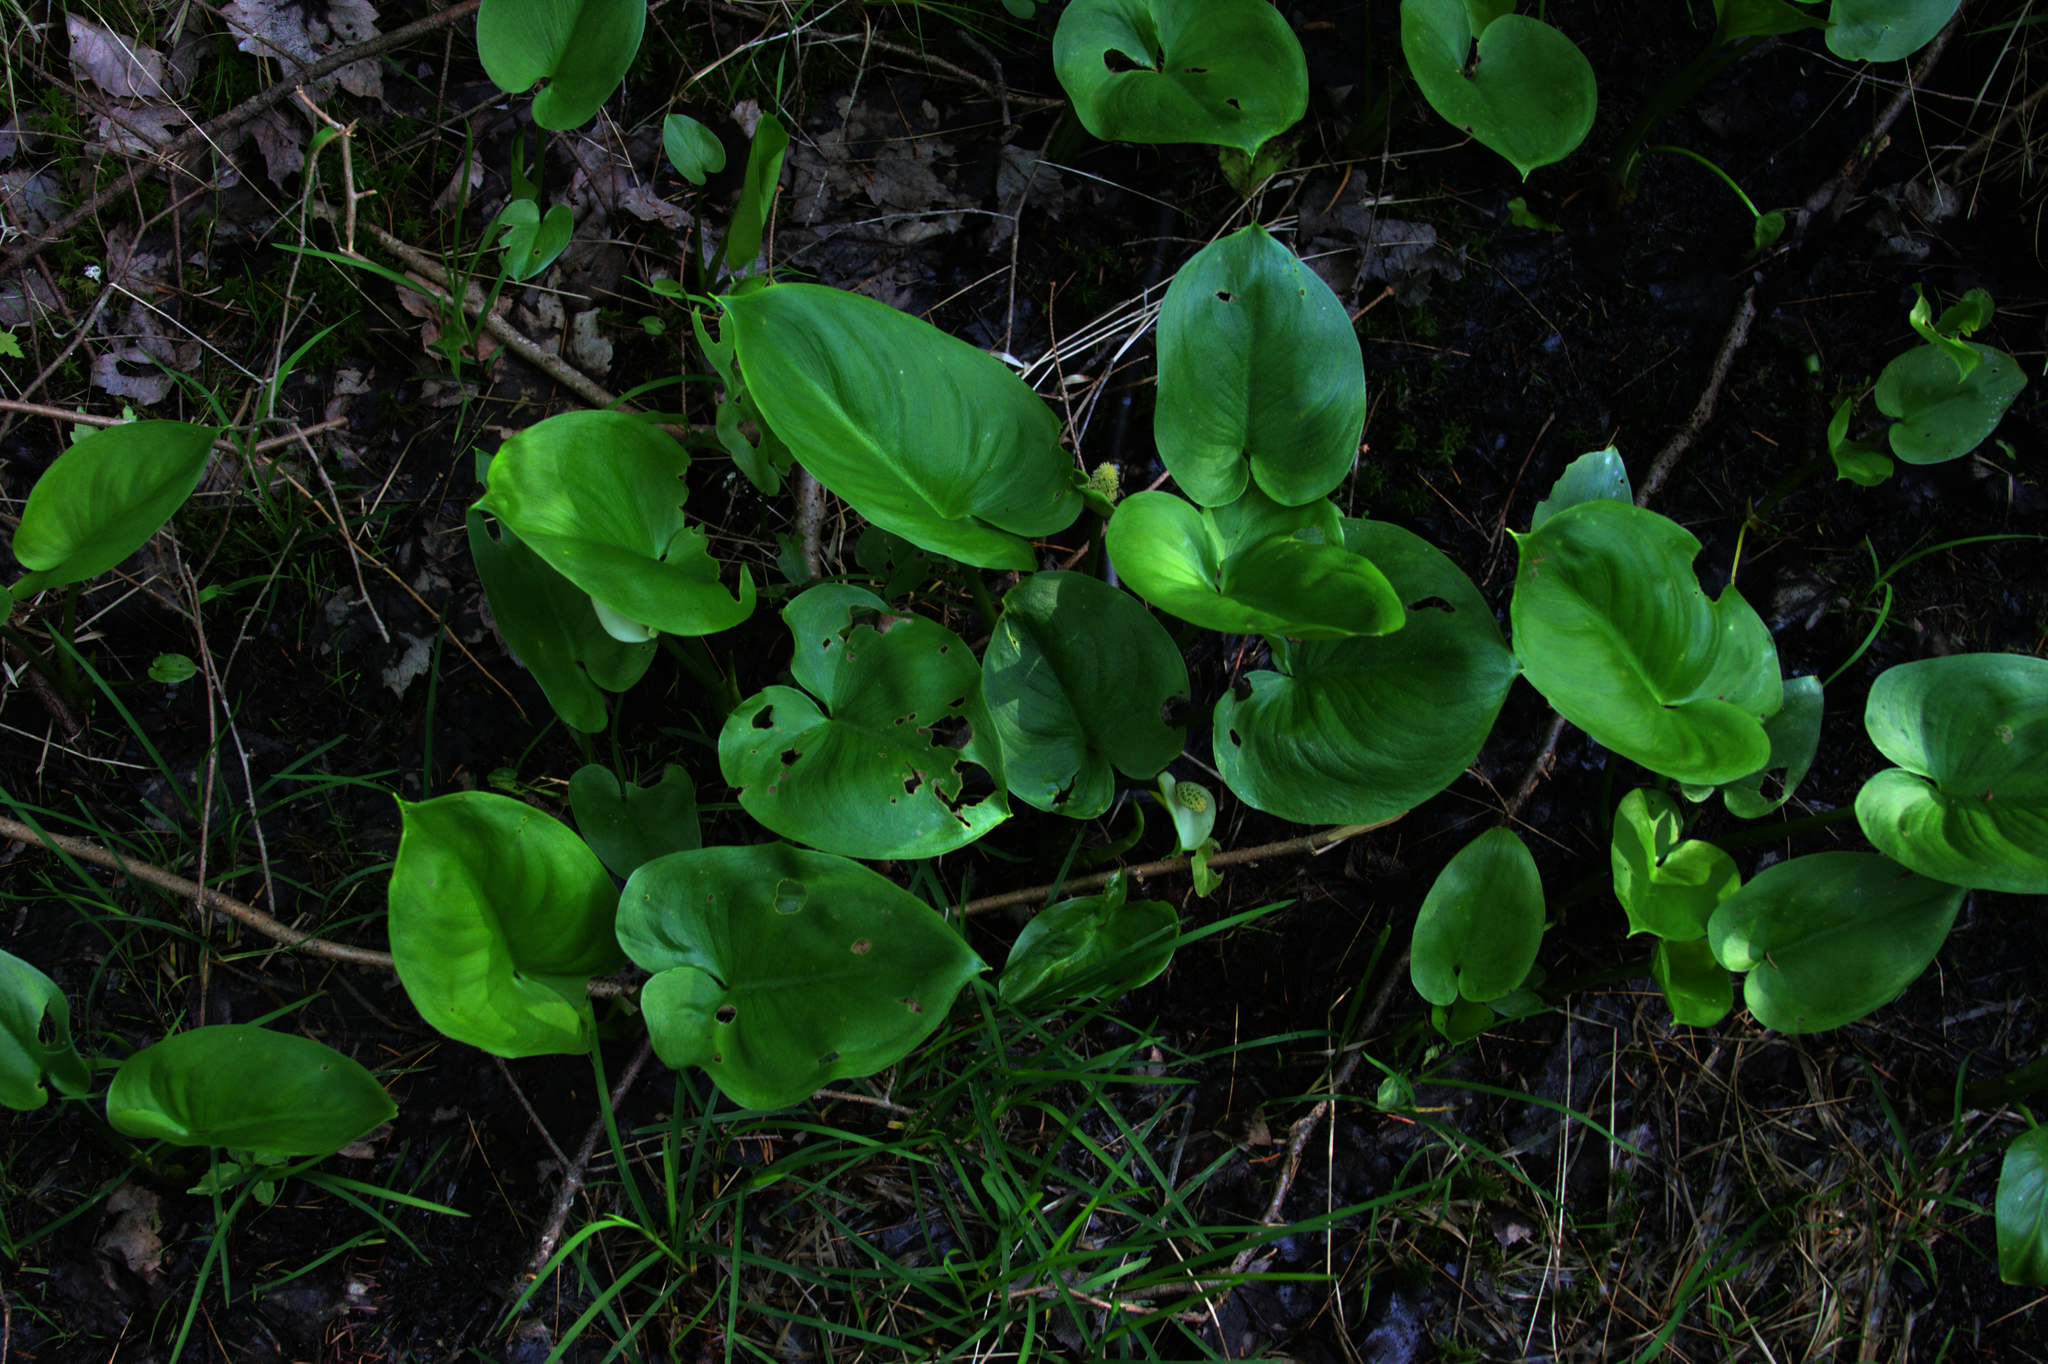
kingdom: Plantae
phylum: Tracheophyta
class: Liliopsida
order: Alismatales
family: Araceae
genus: Calla
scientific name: Calla palustris
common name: Bog arum
